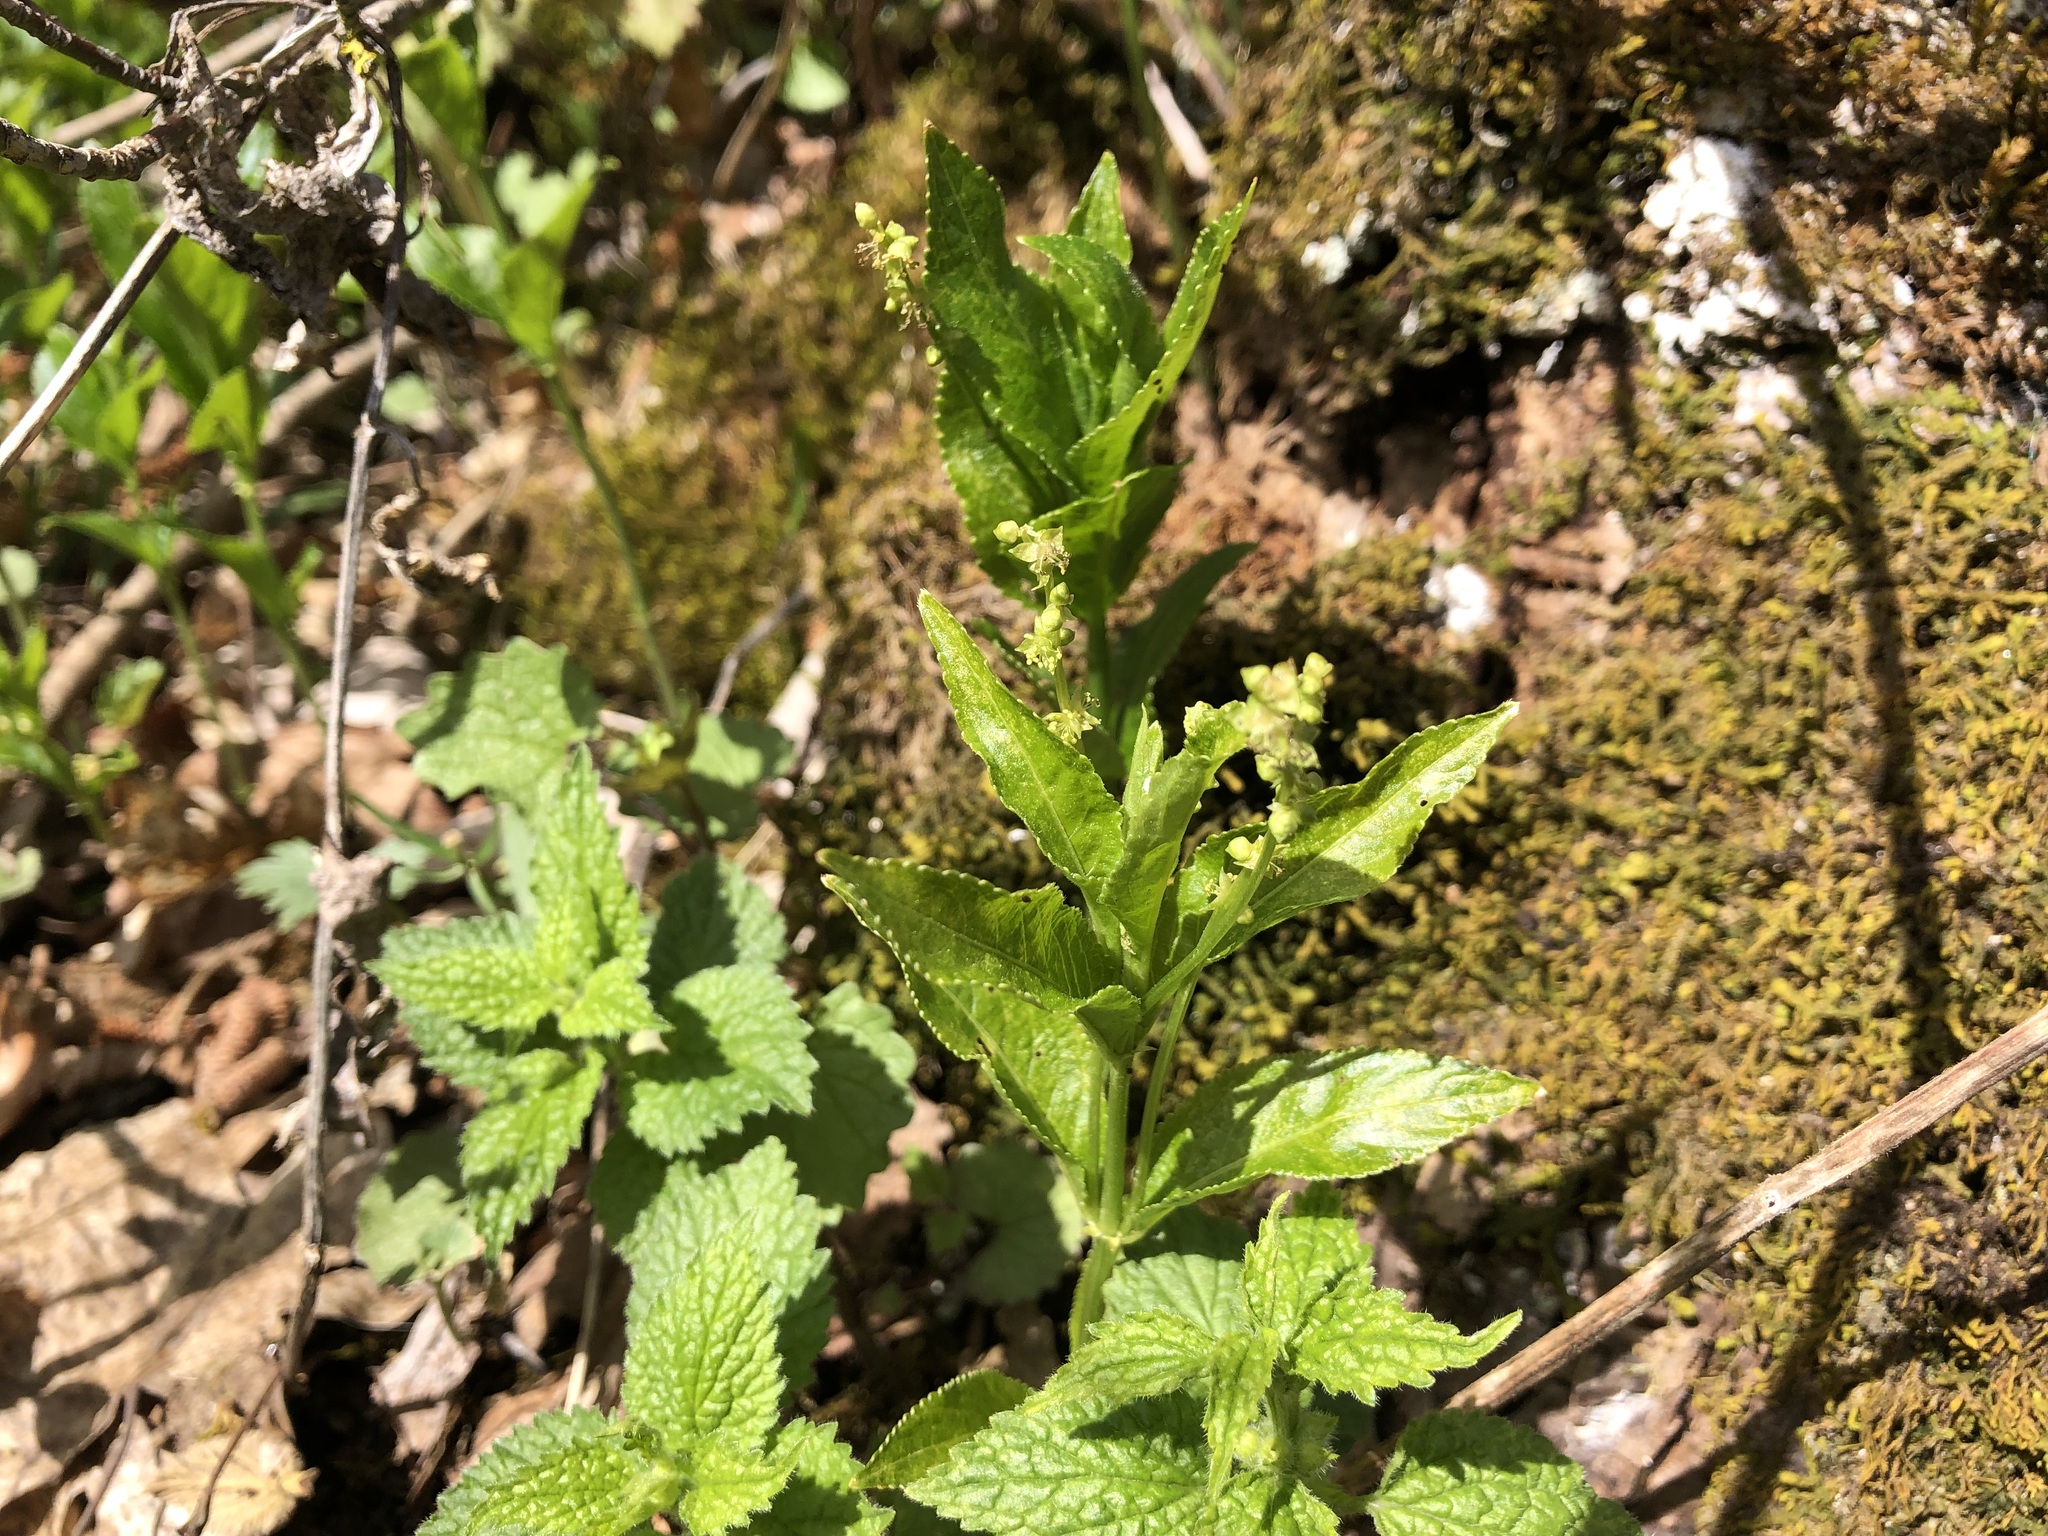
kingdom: Plantae
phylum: Tracheophyta
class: Magnoliopsida
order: Malpighiales
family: Euphorbiaceae
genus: Mercurialis
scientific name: Mercurialis perennis
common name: Dog mercury
